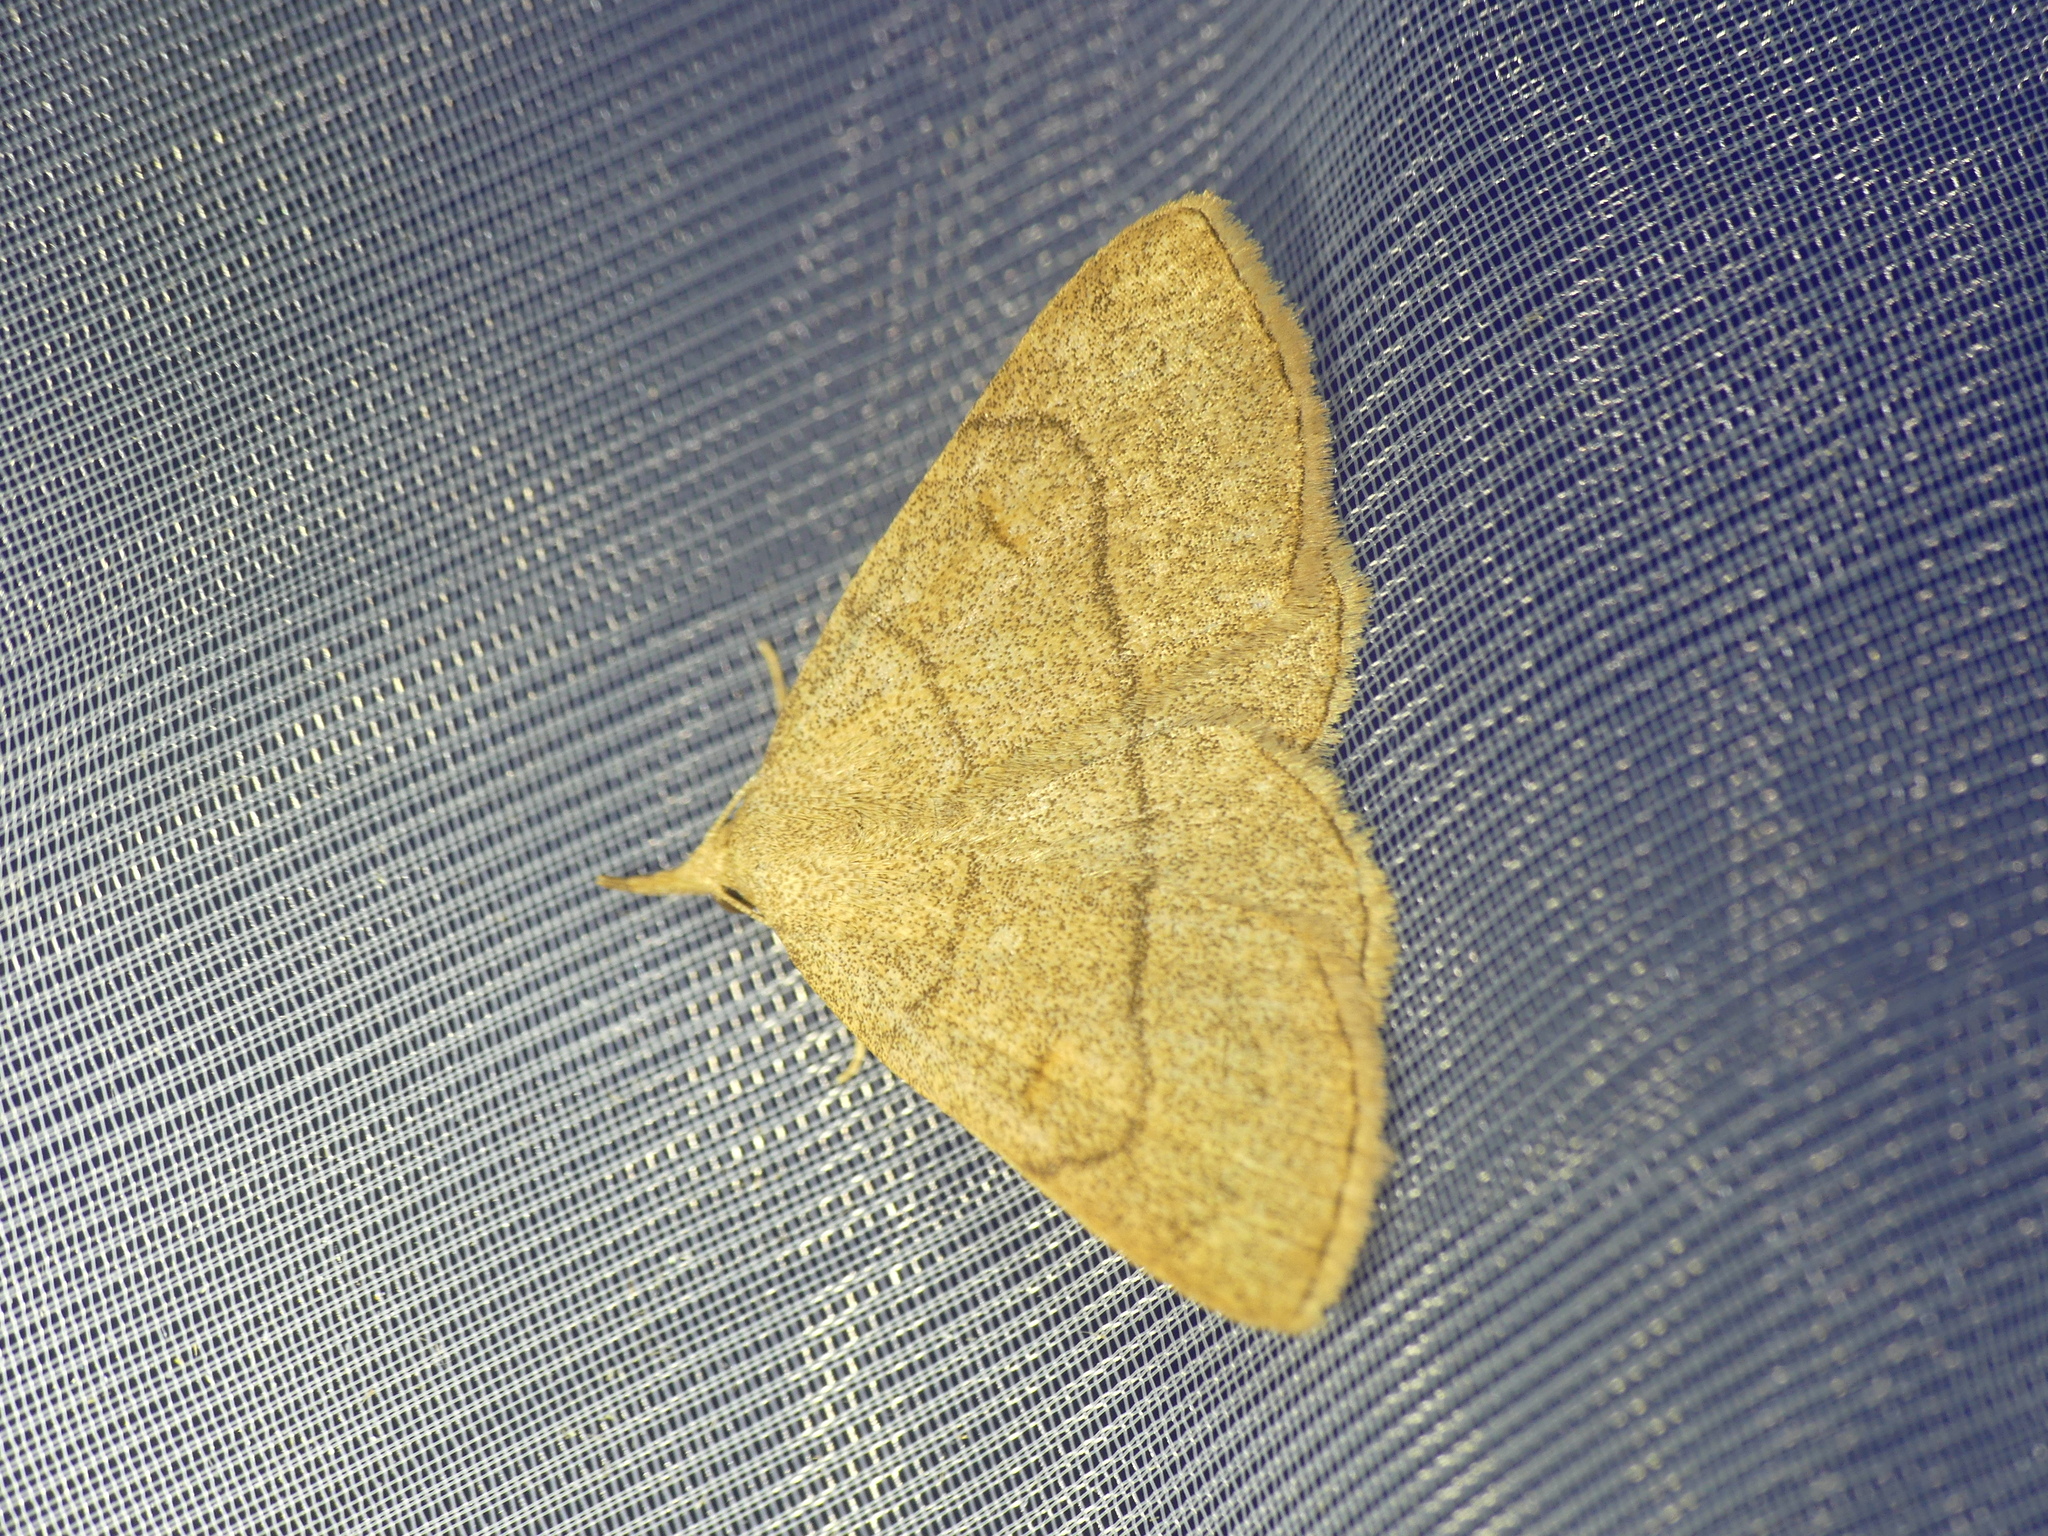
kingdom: Animalia
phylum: Arthropoda
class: Insecta
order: Lepidoptera
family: Erebidae
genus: Paracolax
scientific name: Paracolax tristalis
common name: Clay fan-foot
